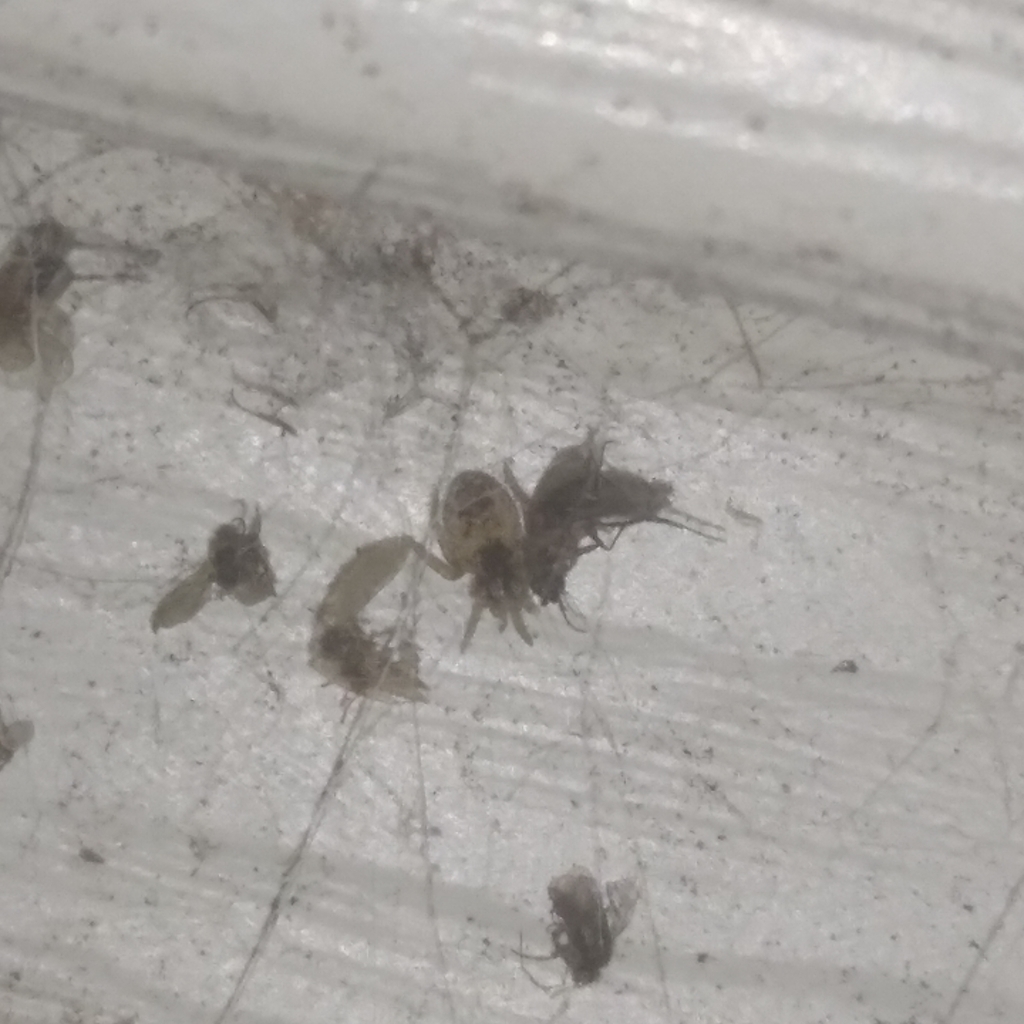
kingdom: Animalia
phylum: Arthropoda
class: Arachnida
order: Araneae
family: Dictynidae
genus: Brigittea
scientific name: Brigittea civica
